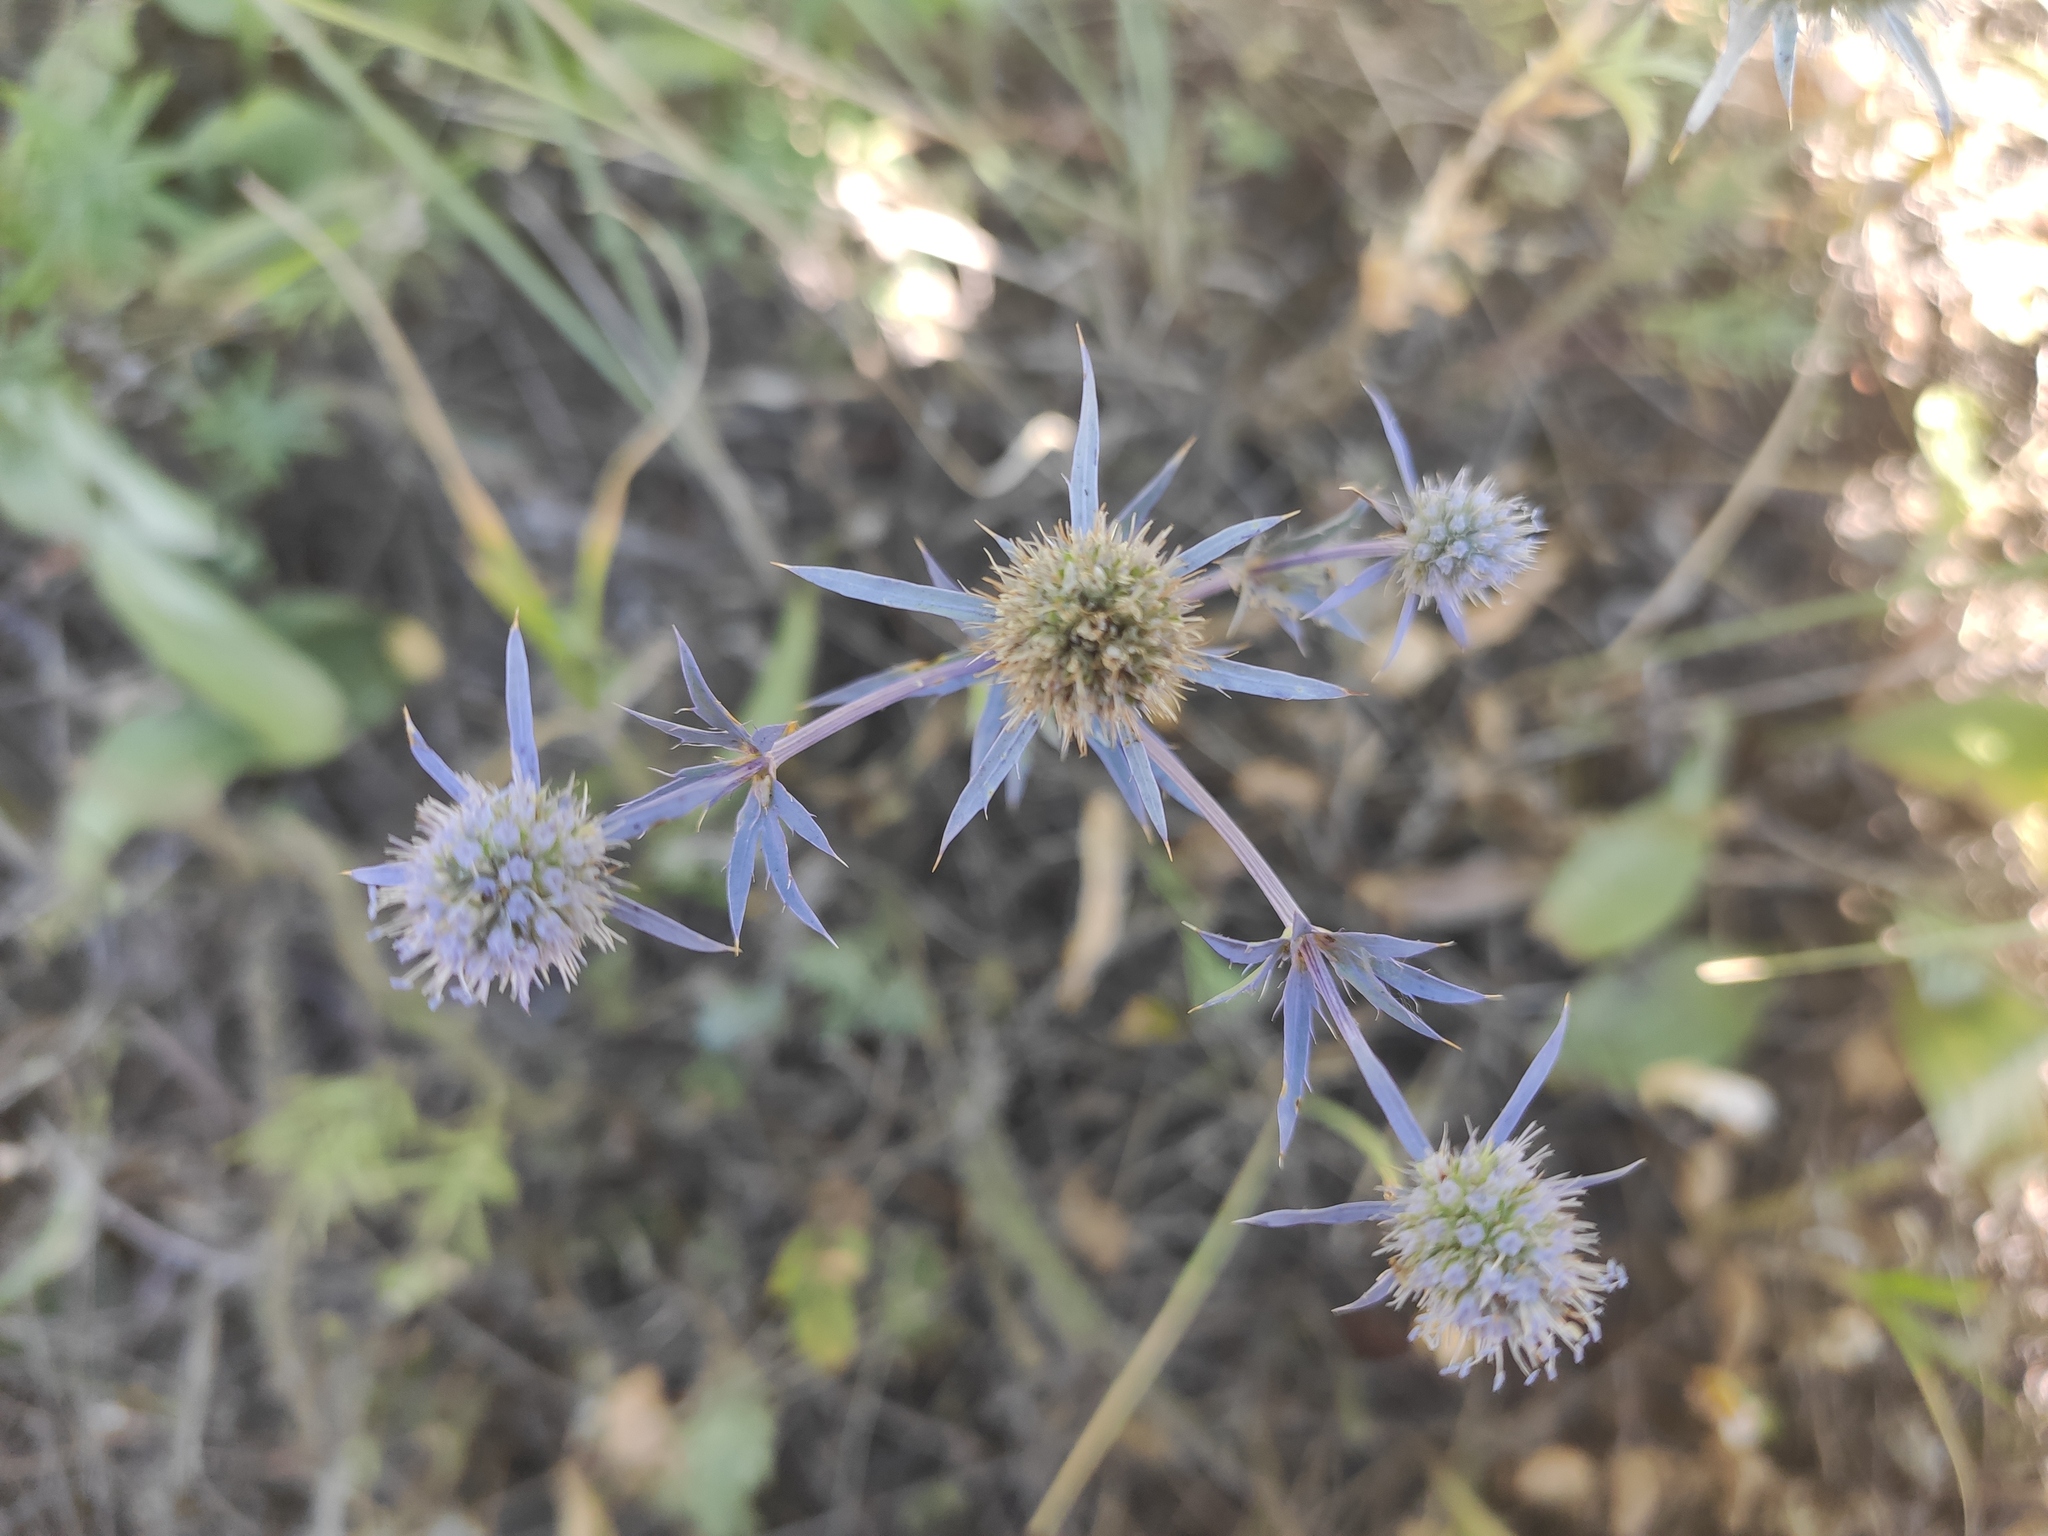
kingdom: Plantae
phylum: Tracheophyta
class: Magnoliopsida
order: Apiales
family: Apiaceae
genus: Eryngium
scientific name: Eryngium planum
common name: Blue eryngo
